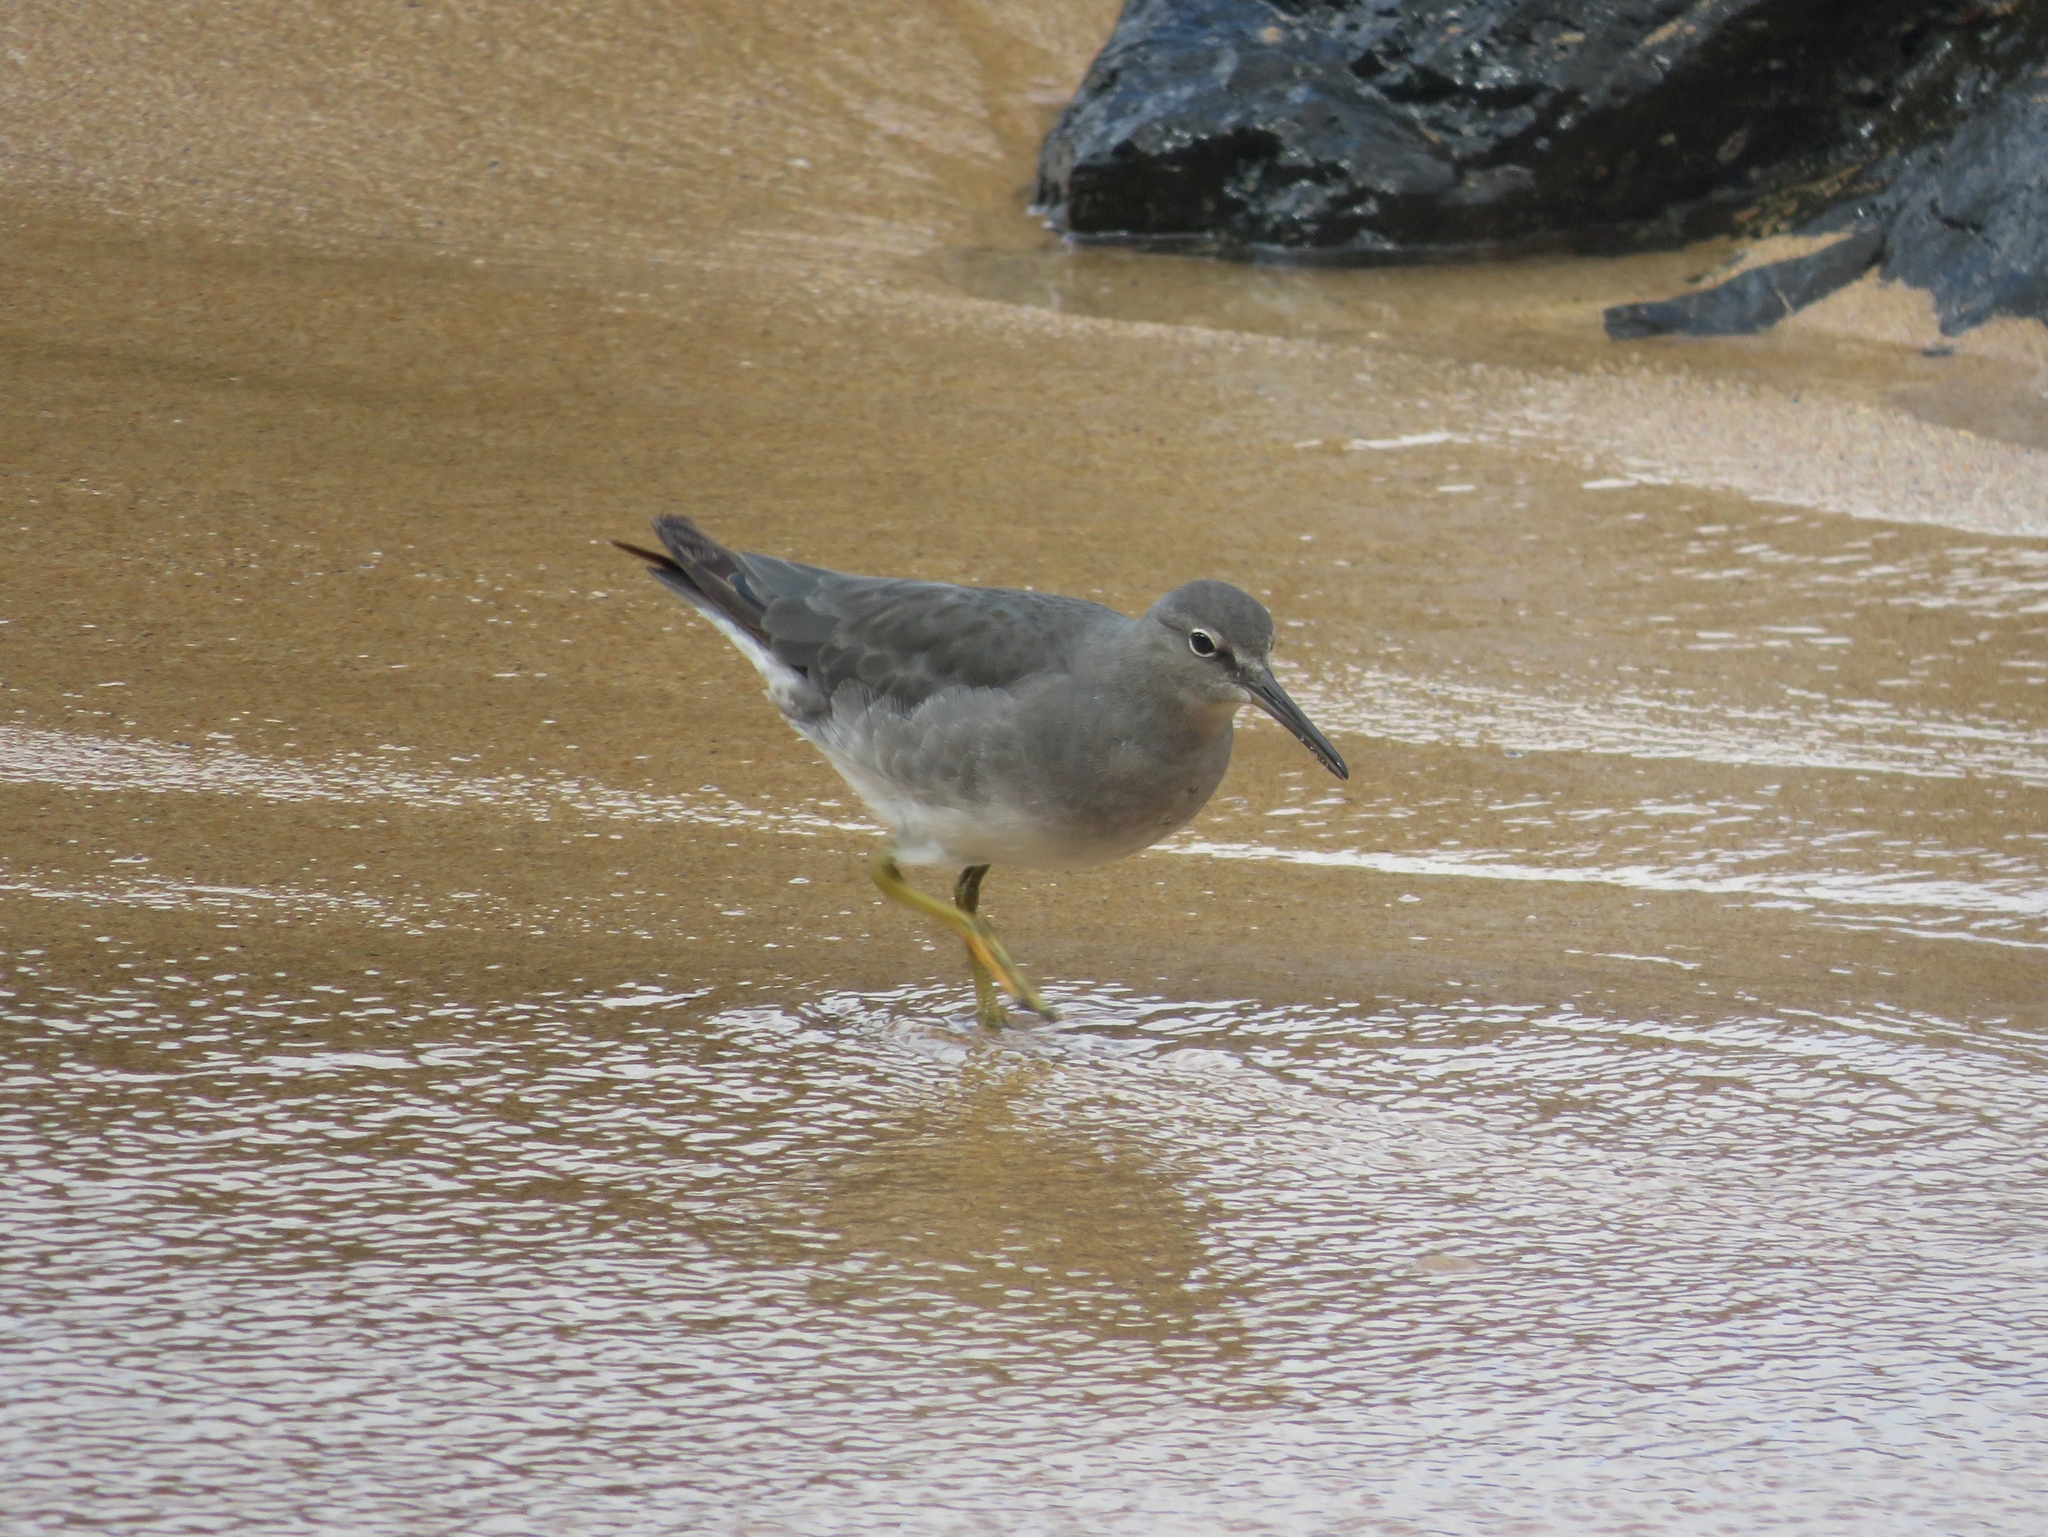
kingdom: Animalia
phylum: Chordata
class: Aves
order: Charadriiformes
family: Scolopacidae
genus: Tringa
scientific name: Tringa incana
